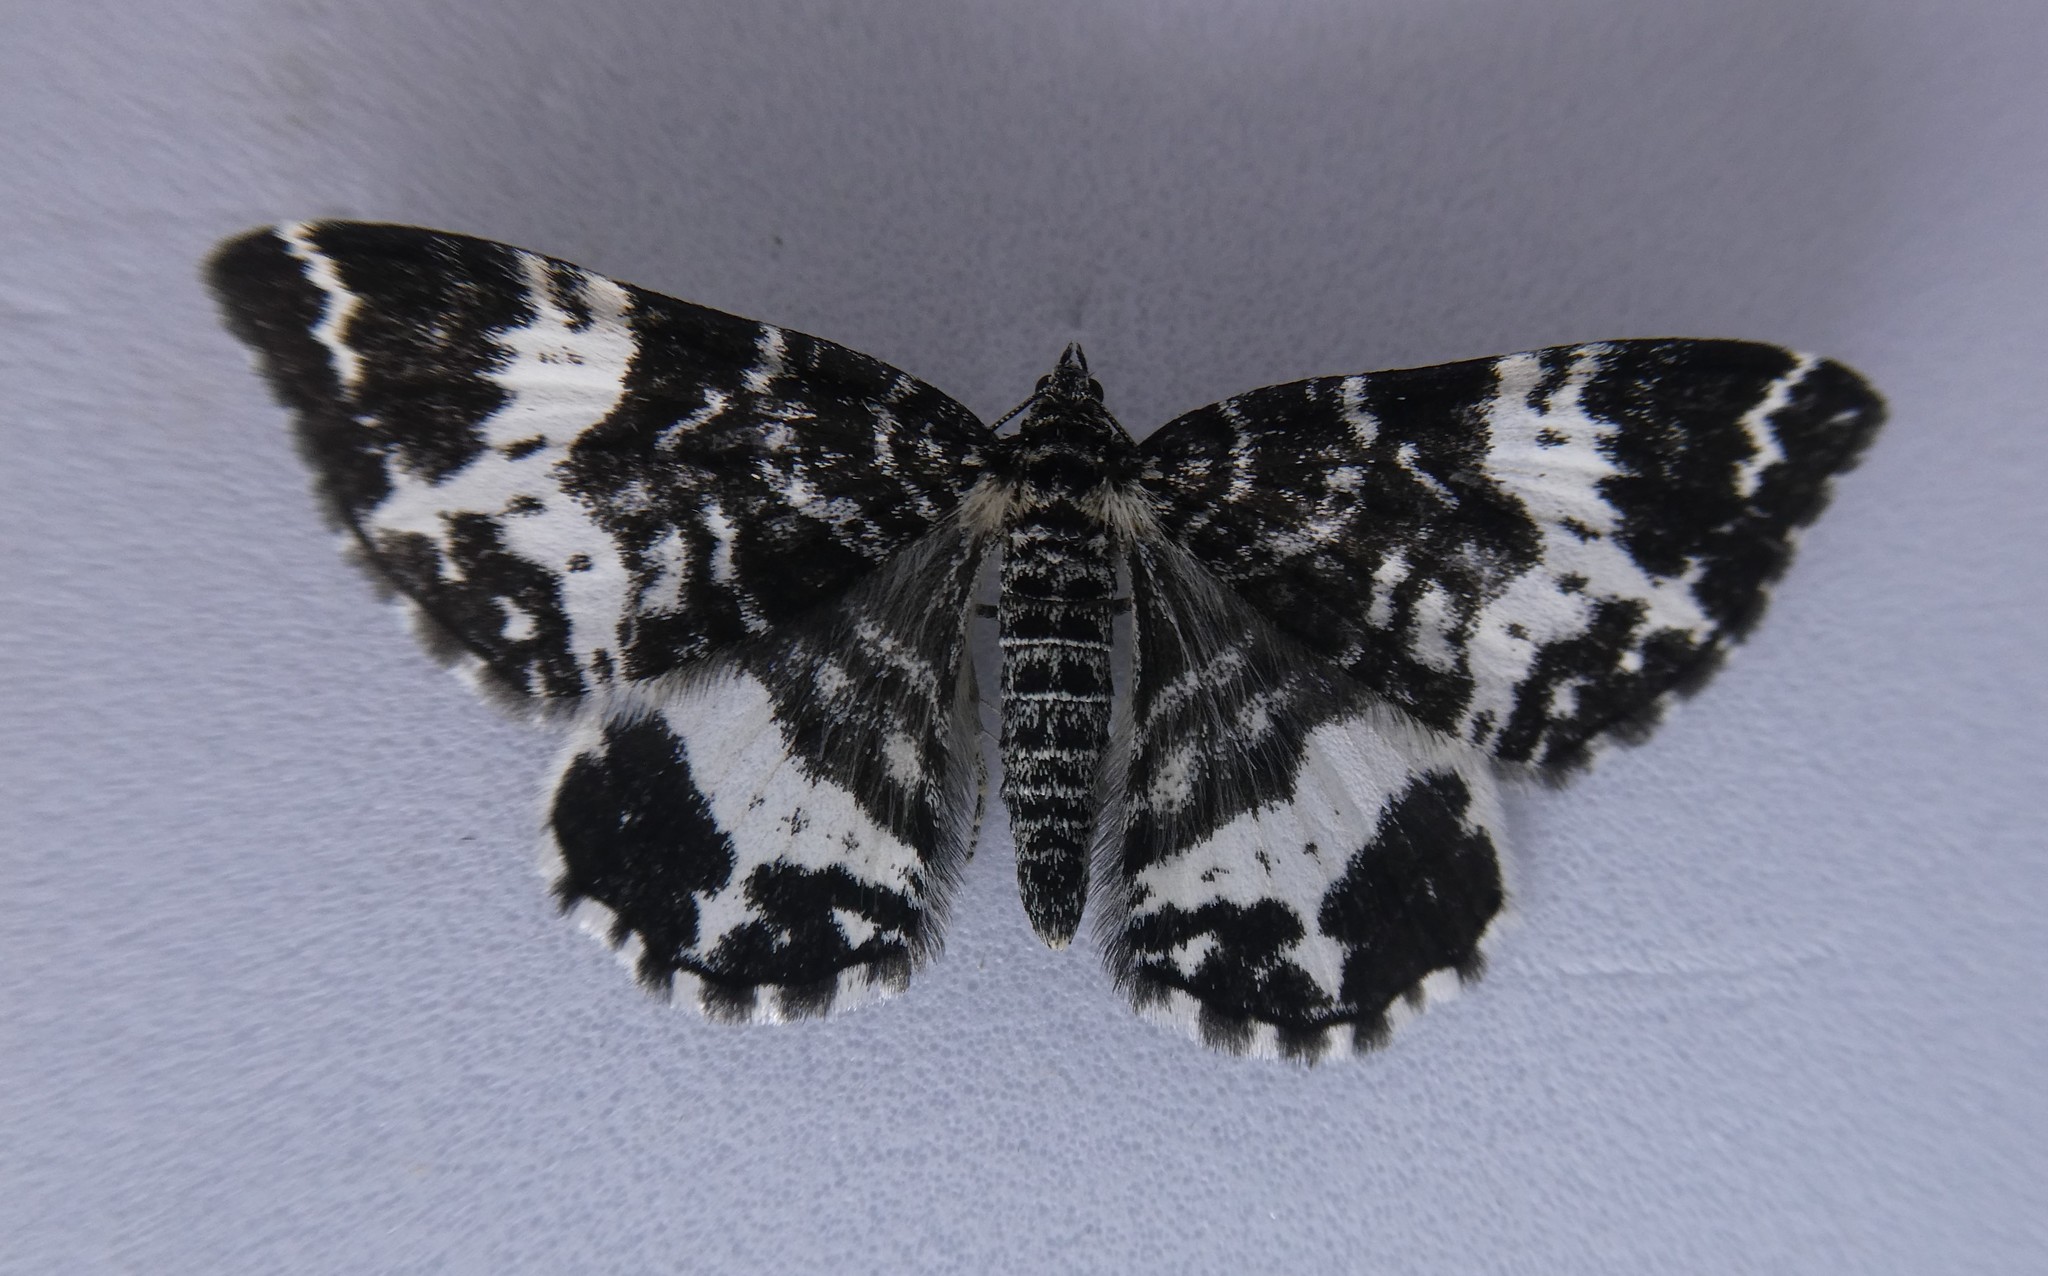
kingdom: Animalia
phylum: Arthropoda
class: Insecta
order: Lepidoptera
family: Geometridae
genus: Rheumaptera
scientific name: Rheumaptera
